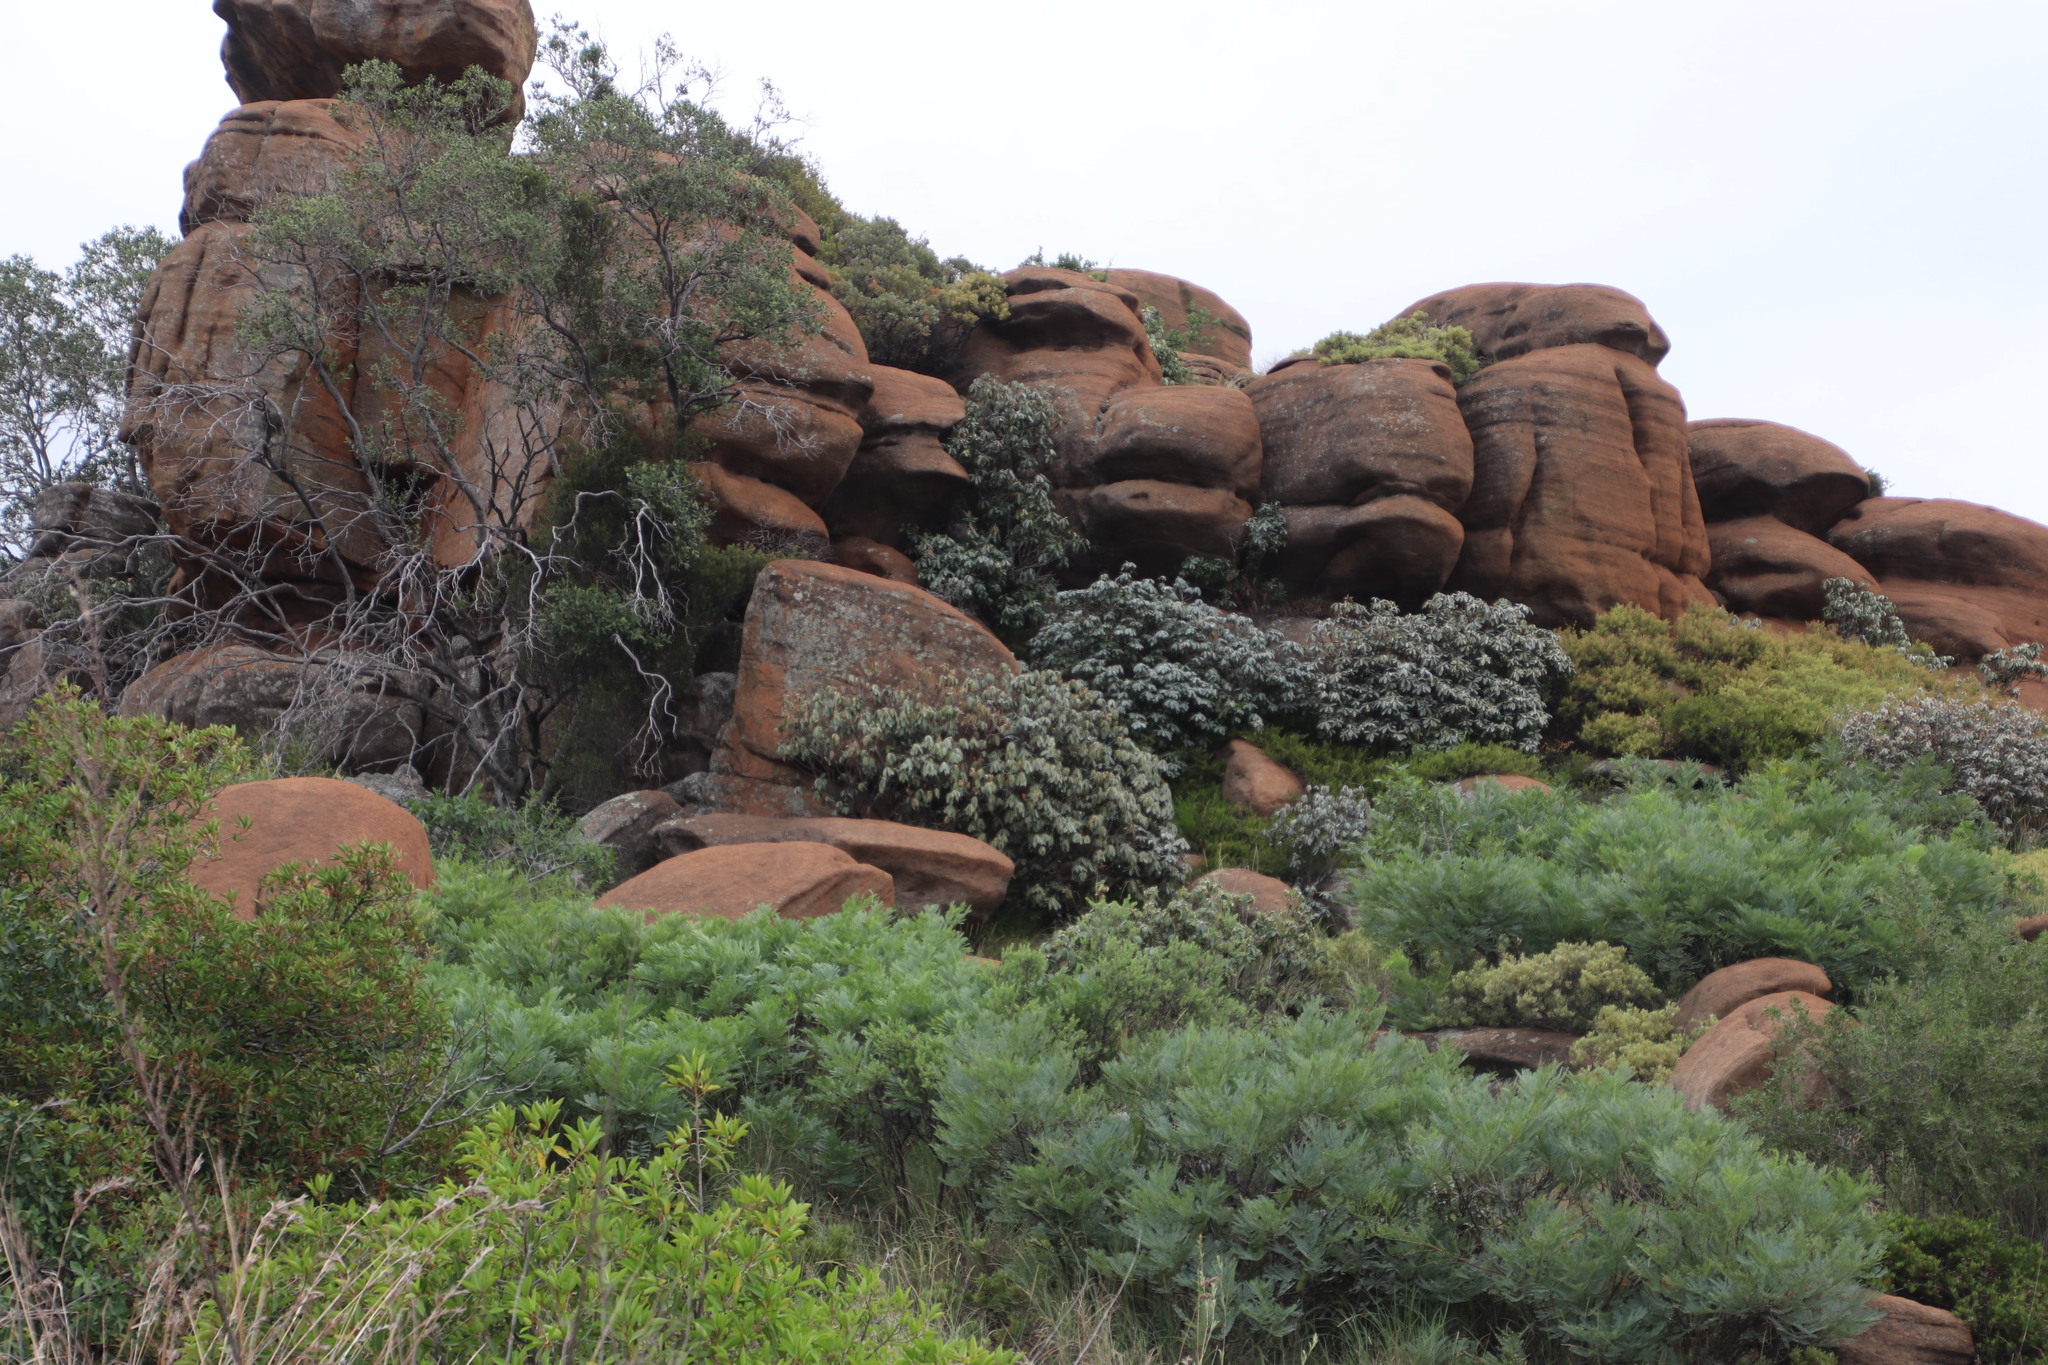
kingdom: Plantae
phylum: Tracheophyta
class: Magnoliopsida
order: Ericales
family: Sapotaceae
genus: Englerophytum
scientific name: Englerophytum magalismontanum
